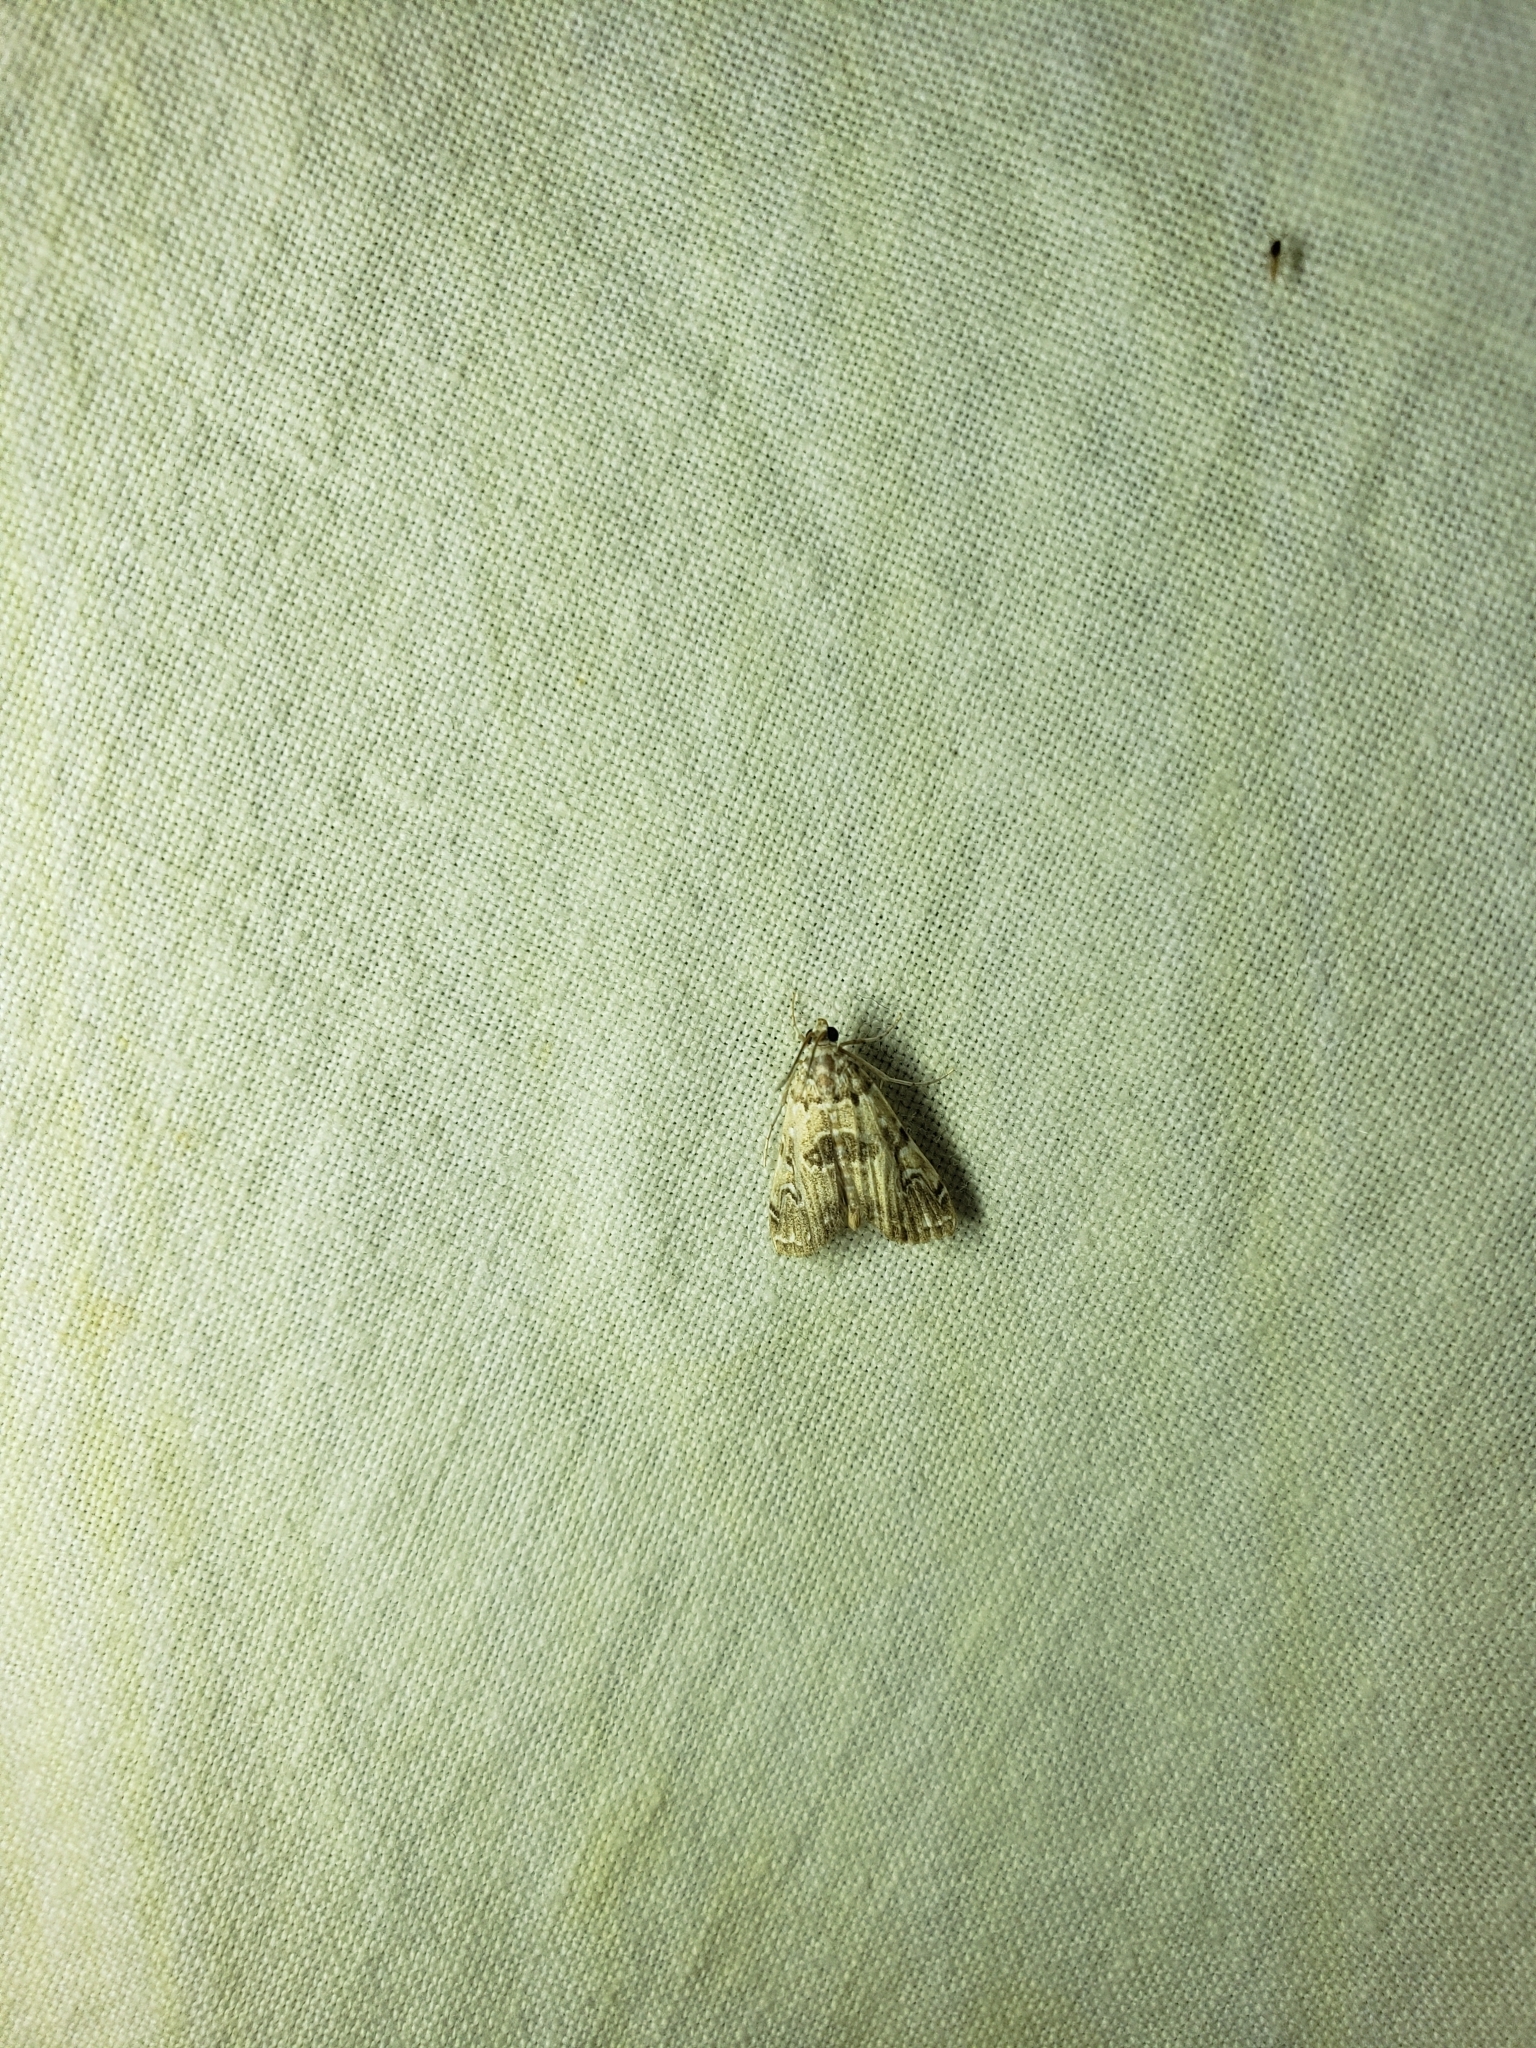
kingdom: Animalia
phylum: Arthropoda
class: Insecta
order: Lepidoptera
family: Crambidae
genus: Elophila
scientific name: Elophila gyralis
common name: Waterlily borer moth
